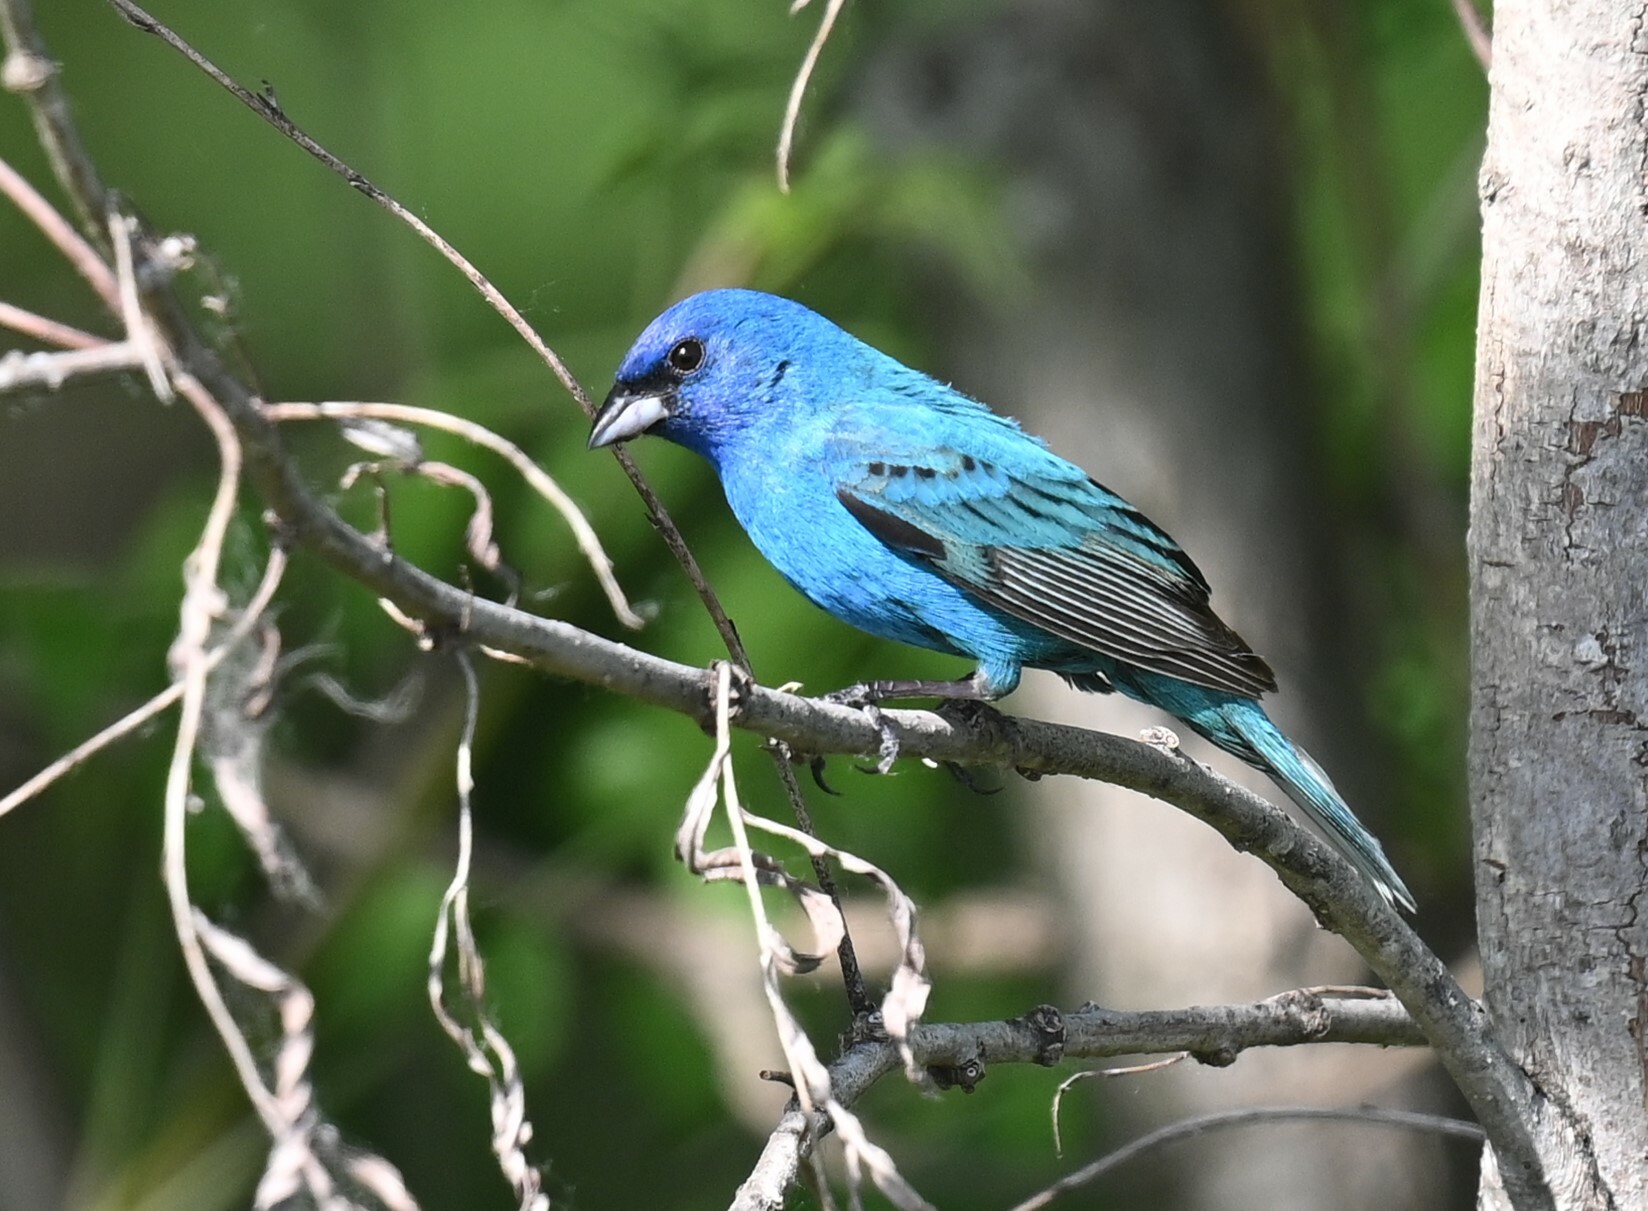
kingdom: Animalia
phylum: Chordata
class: Aves
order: Passeriformes
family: Cardinalidae
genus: Passerina
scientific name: Passerina cyanea
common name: Indigo bunting
